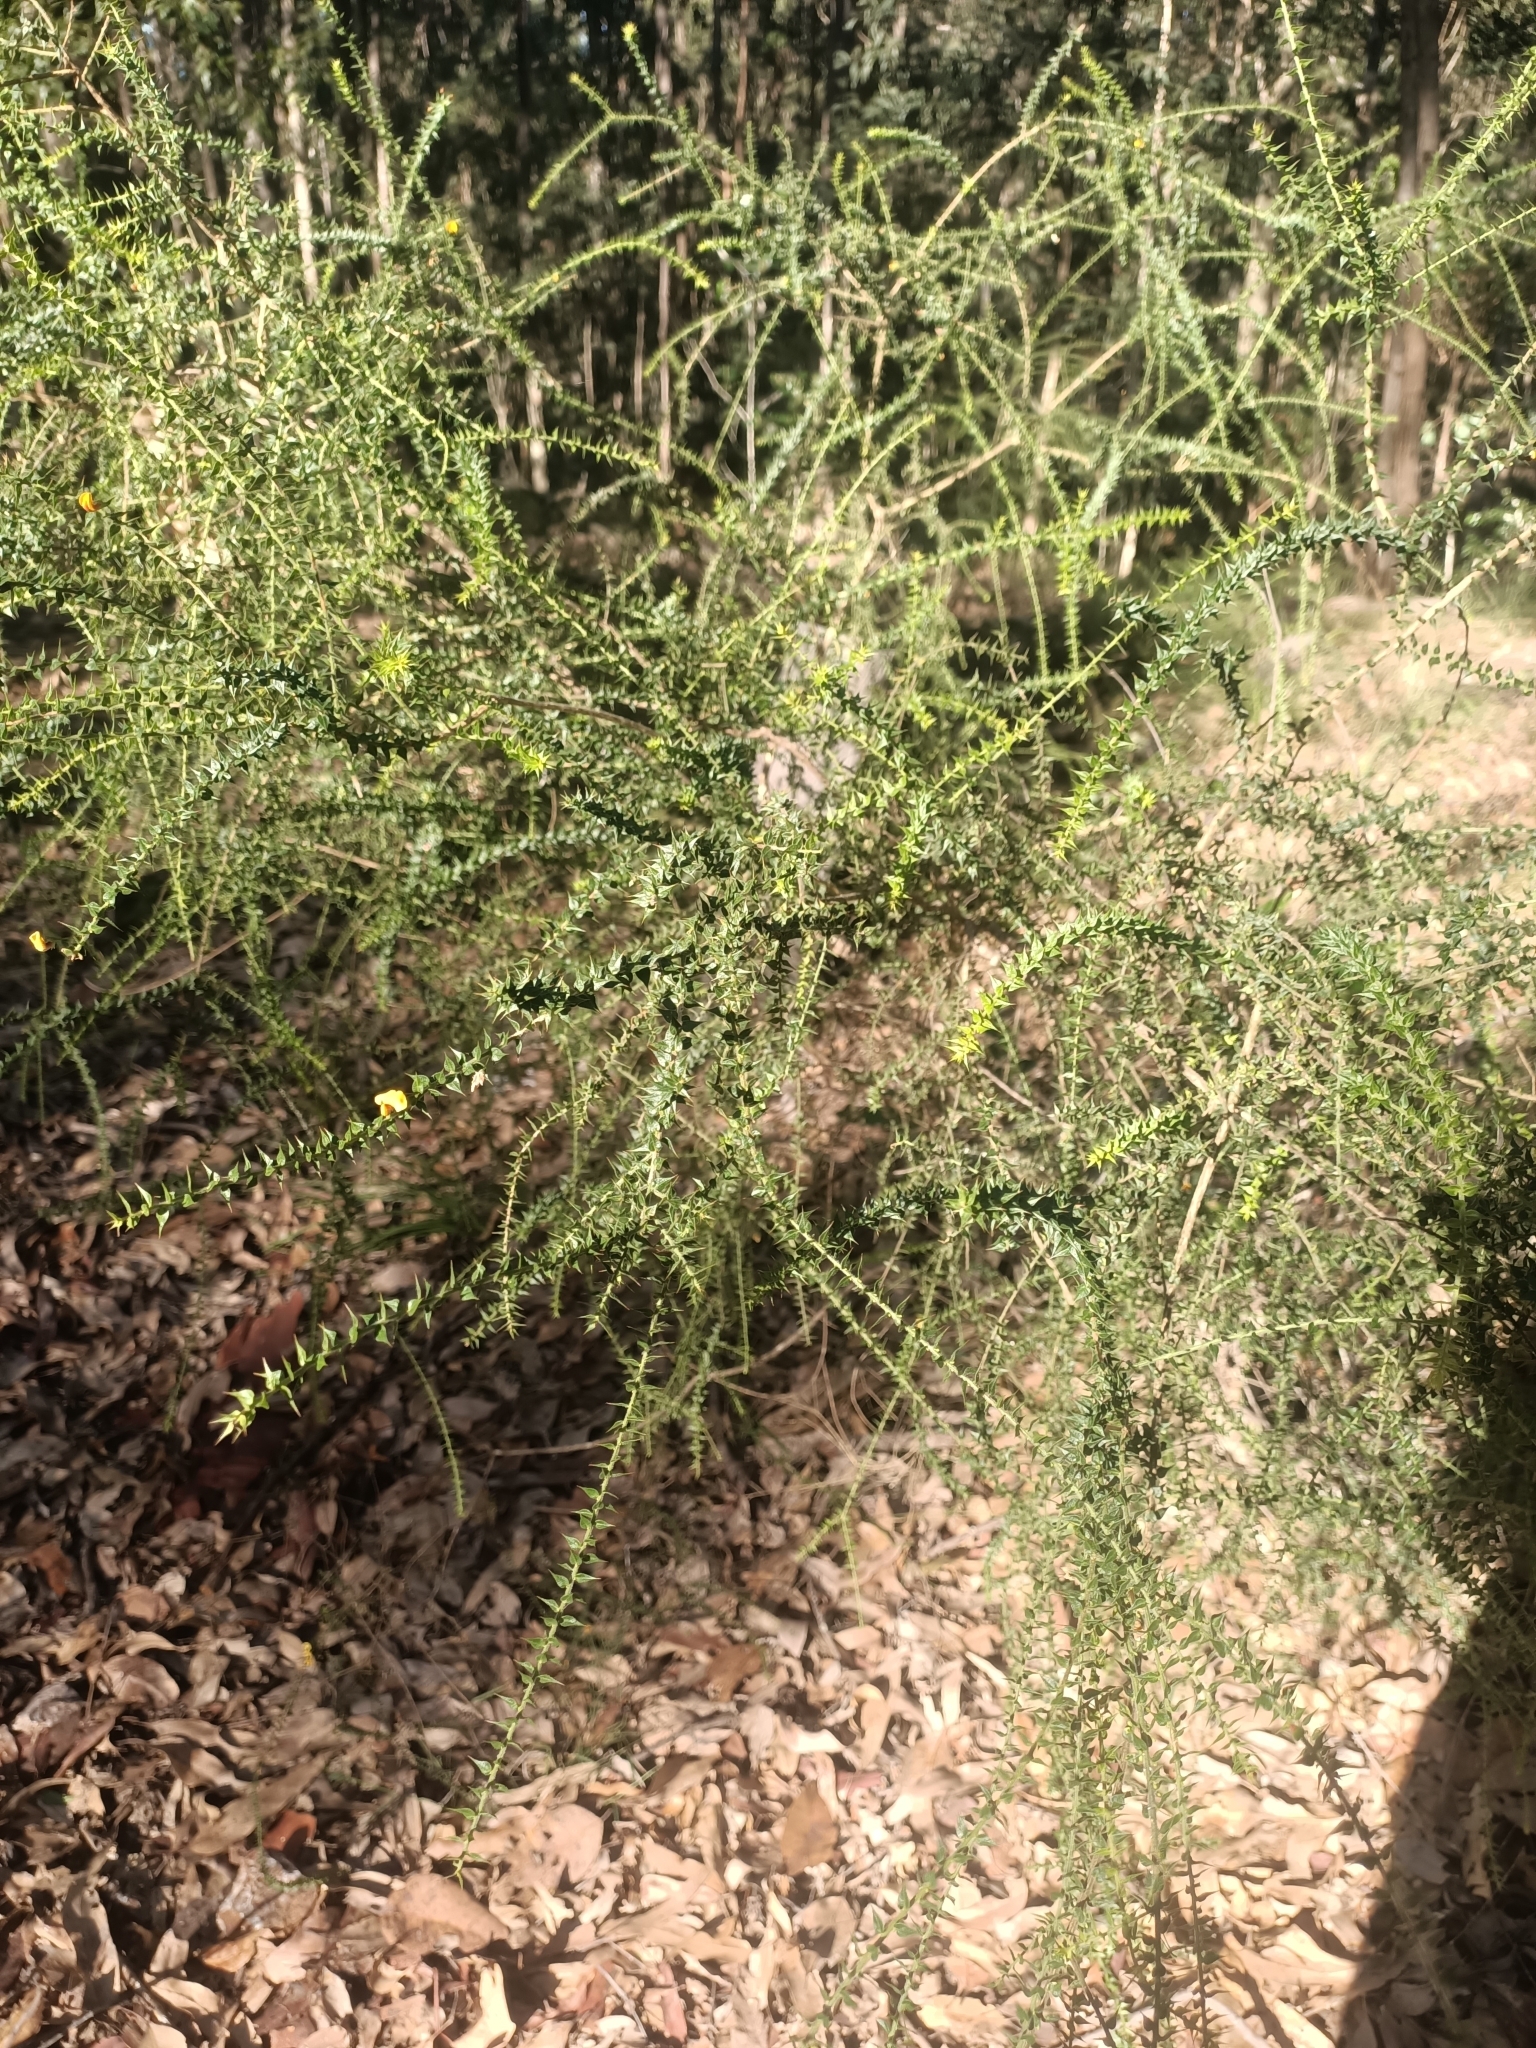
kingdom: Plantae
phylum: Tracheophyta
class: Magnoliopsida
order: Fabales
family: Fabaceae
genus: Daviesia
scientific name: Daviesia villifera
